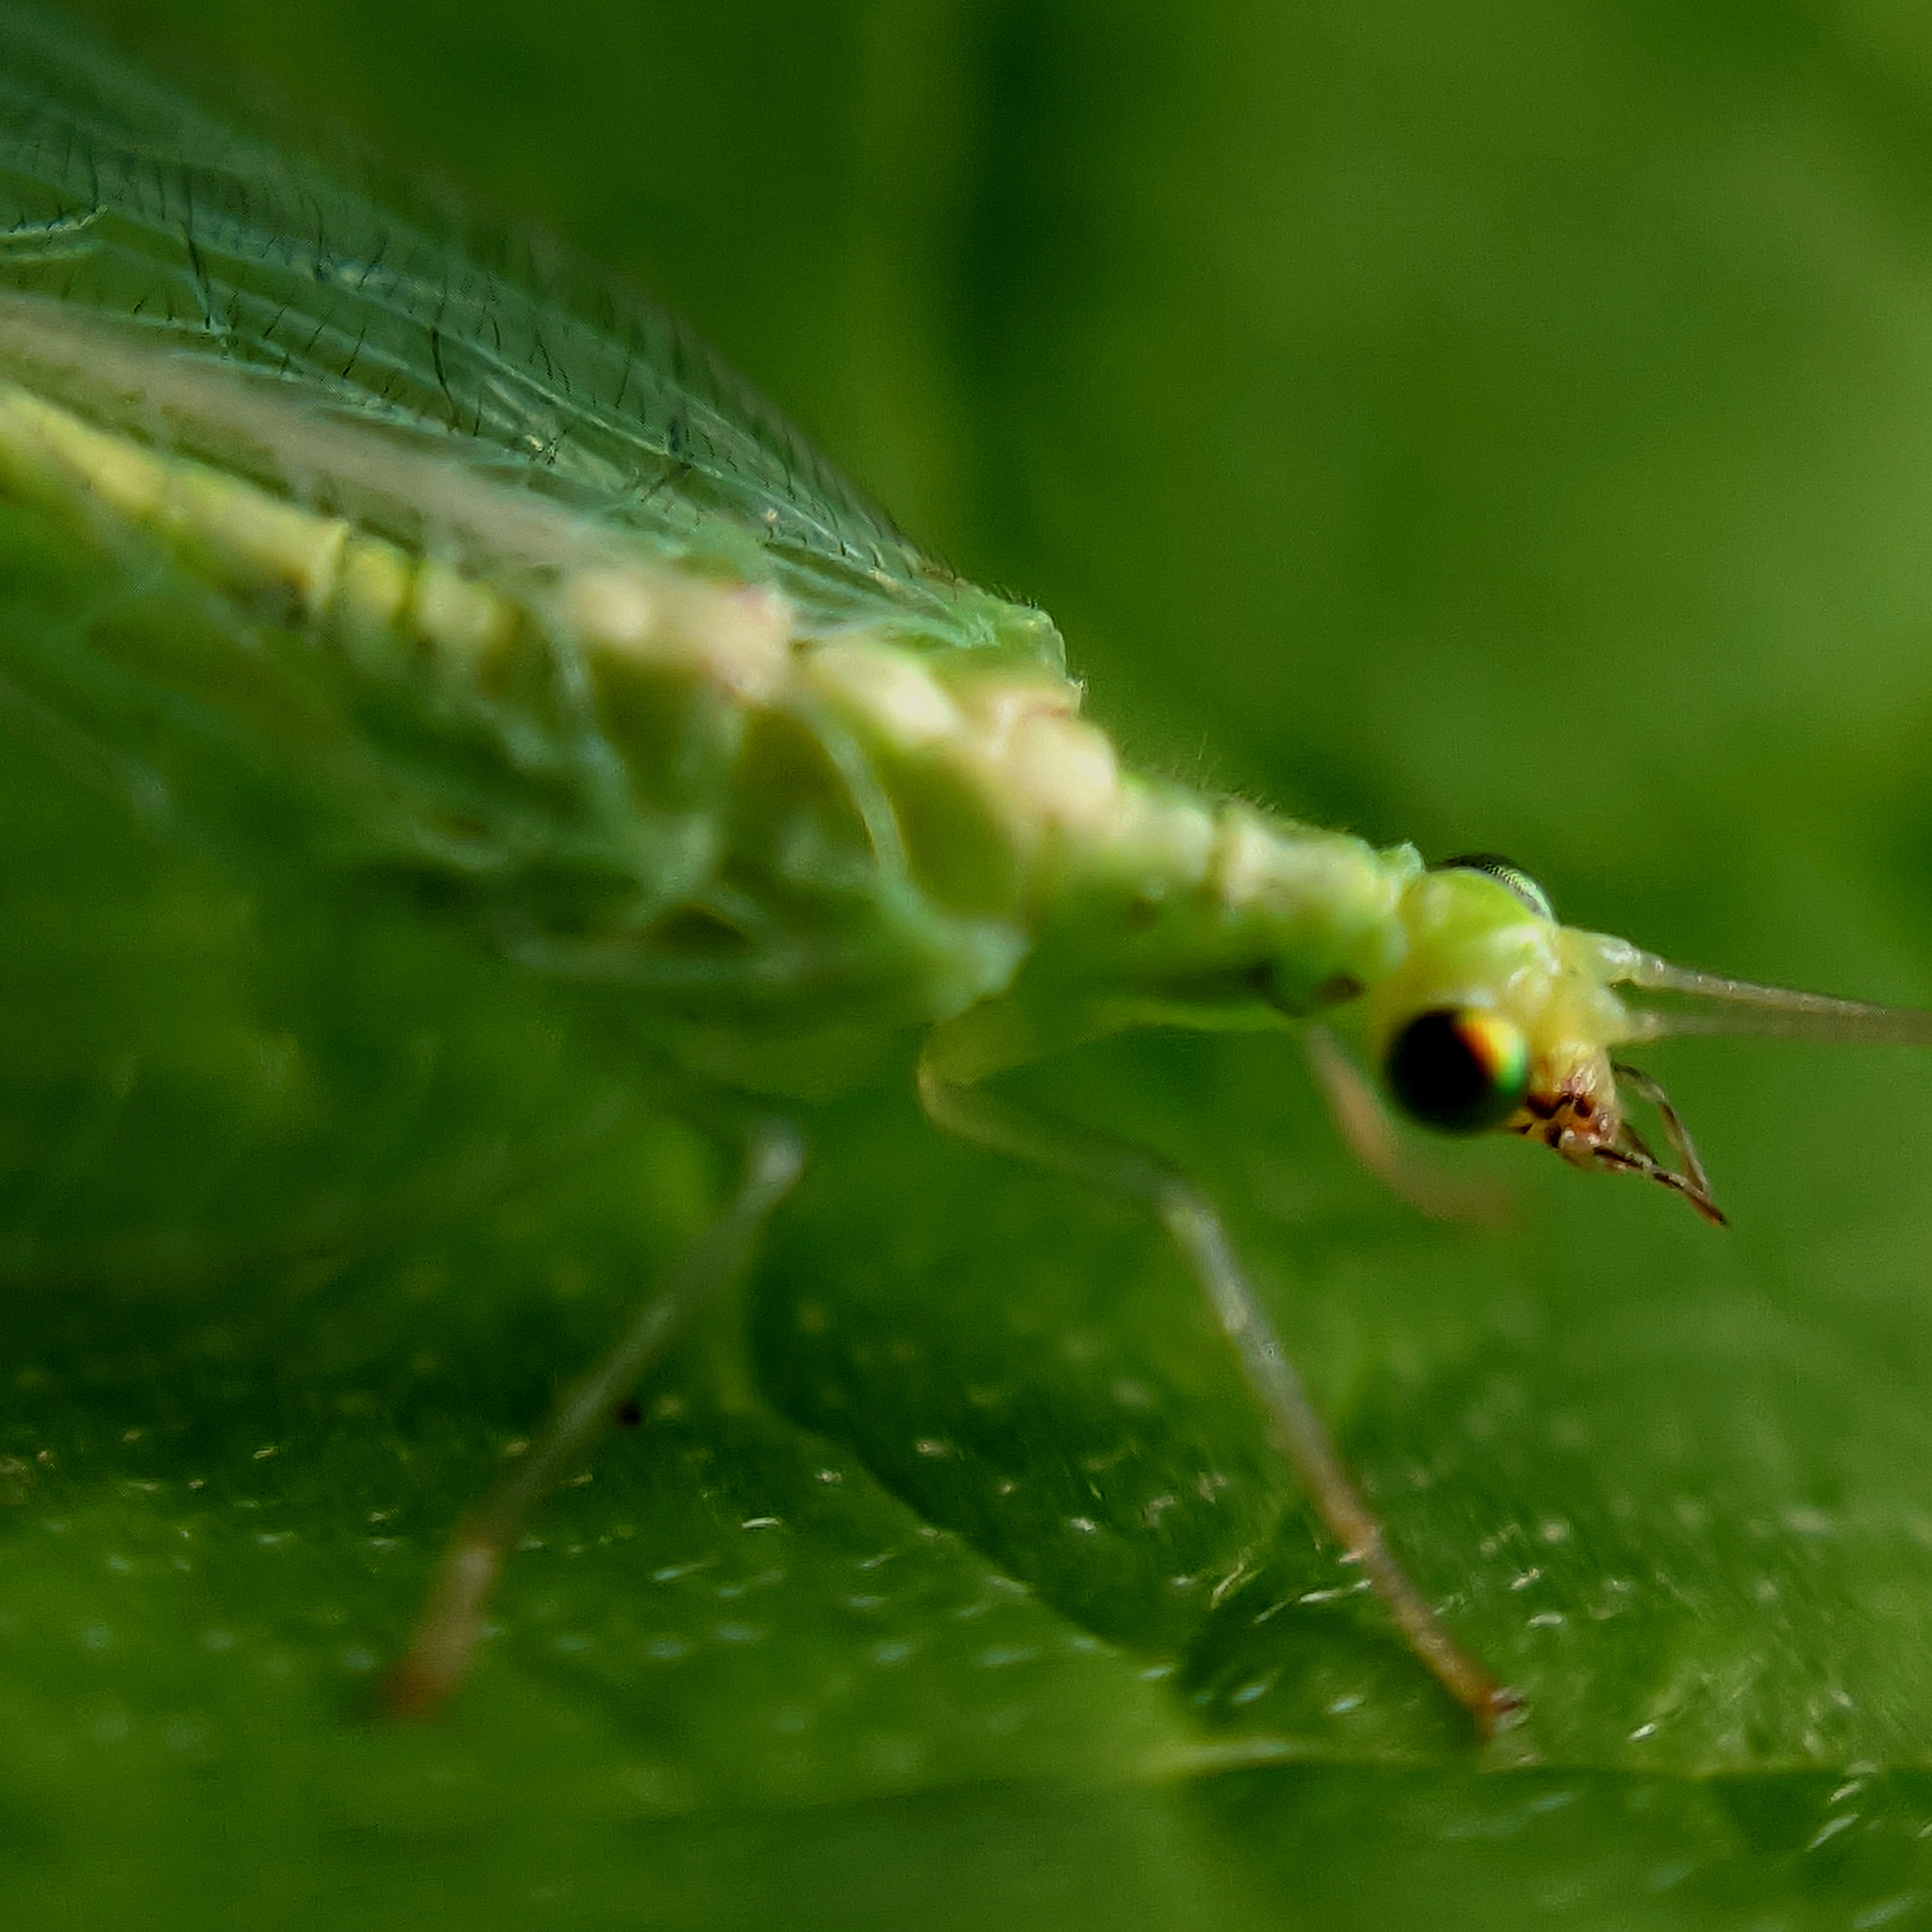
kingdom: Animalia
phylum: Arthropoda
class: Insecta
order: Neuroptera
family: Chrysopidae
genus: Chrysoperla
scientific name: Chrysoperla
